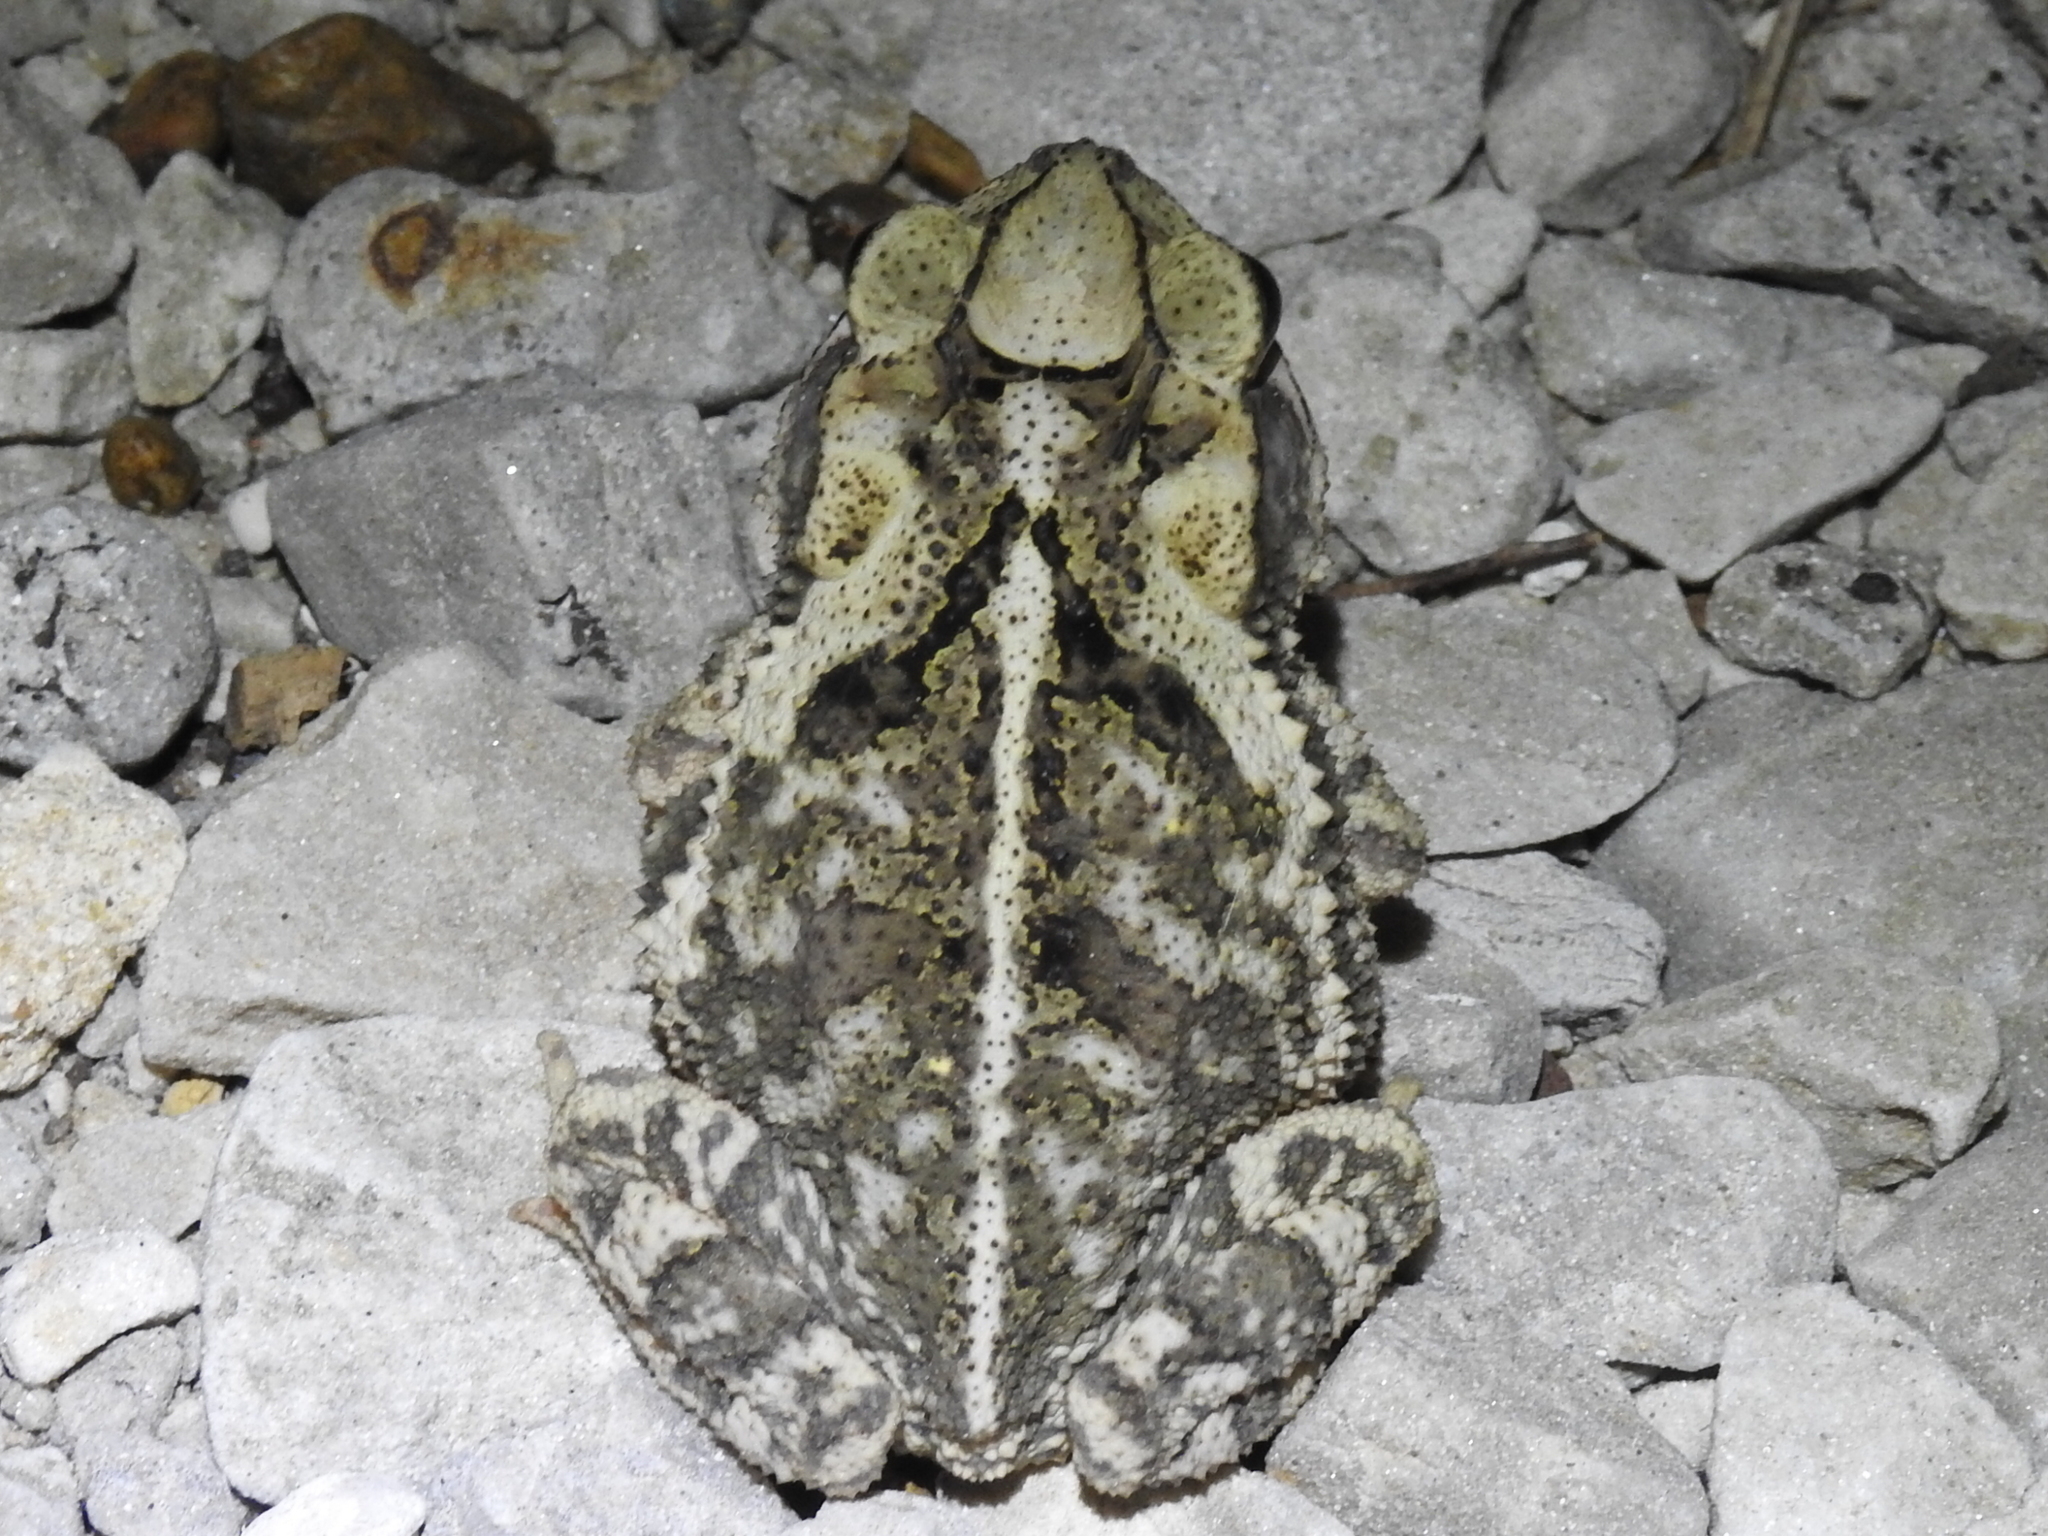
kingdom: Animalia
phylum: Chordata
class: Amphibia
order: Anura
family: Bufonidae
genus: Incilius
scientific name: Incilius nebulifer
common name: Gulf coast toad
